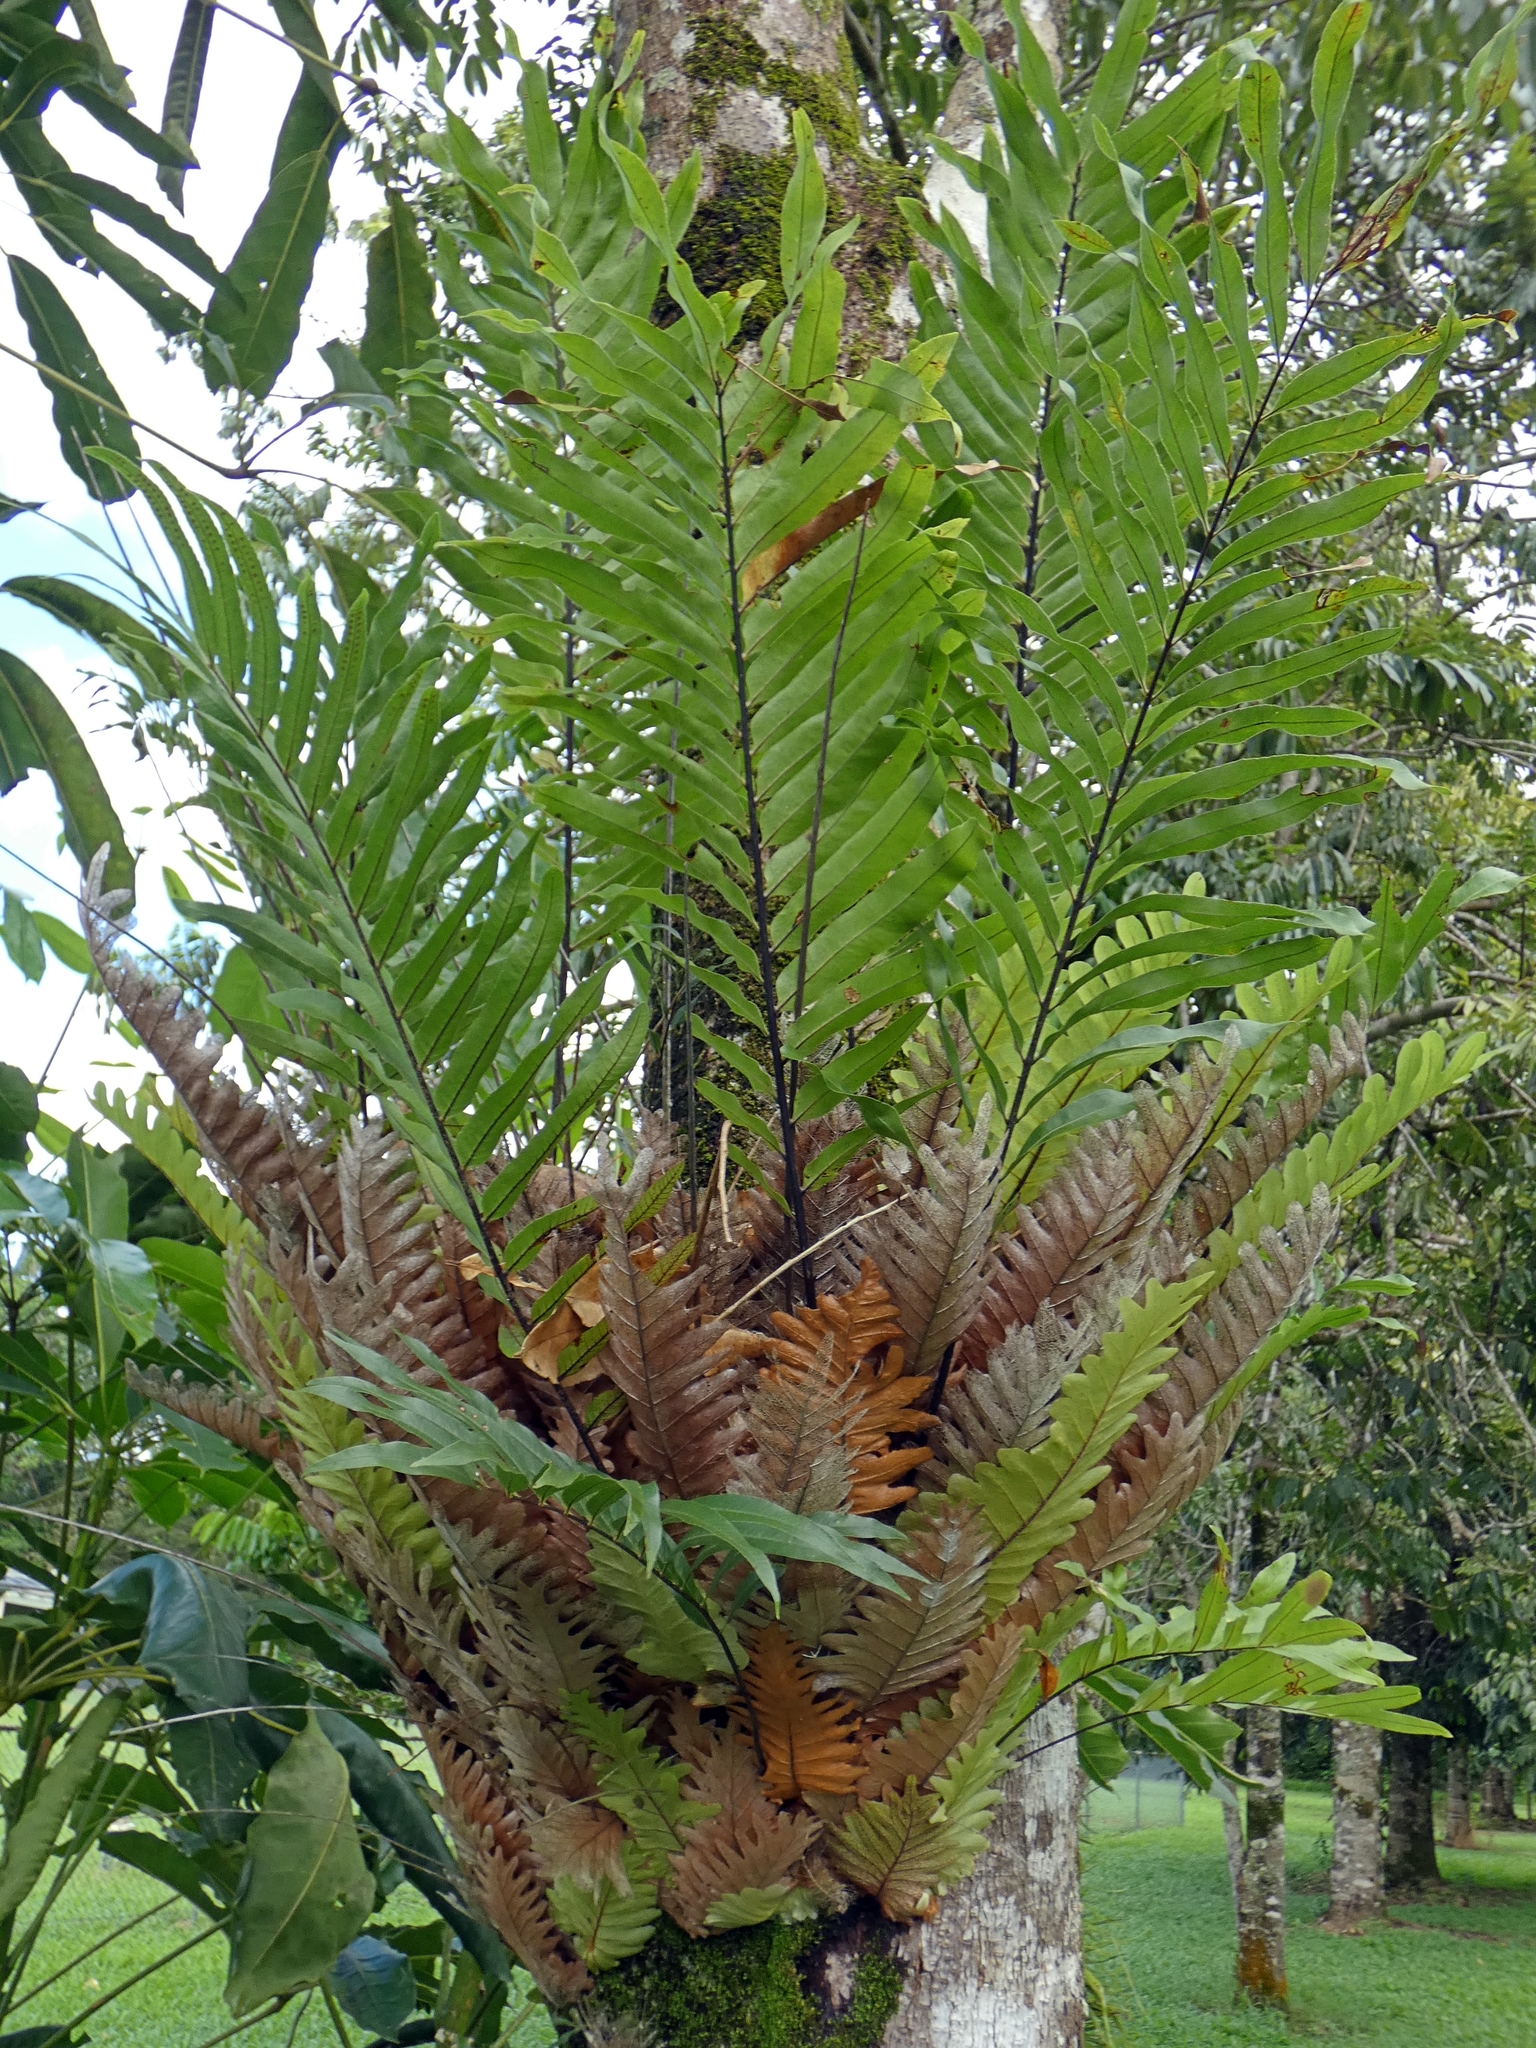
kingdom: Plantae
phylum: Tracheophyta
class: Polypodiopsida
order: Polypodiales
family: Polypodiaceae
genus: Drynaria
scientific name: Drynaria rigidula
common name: Basket fern
